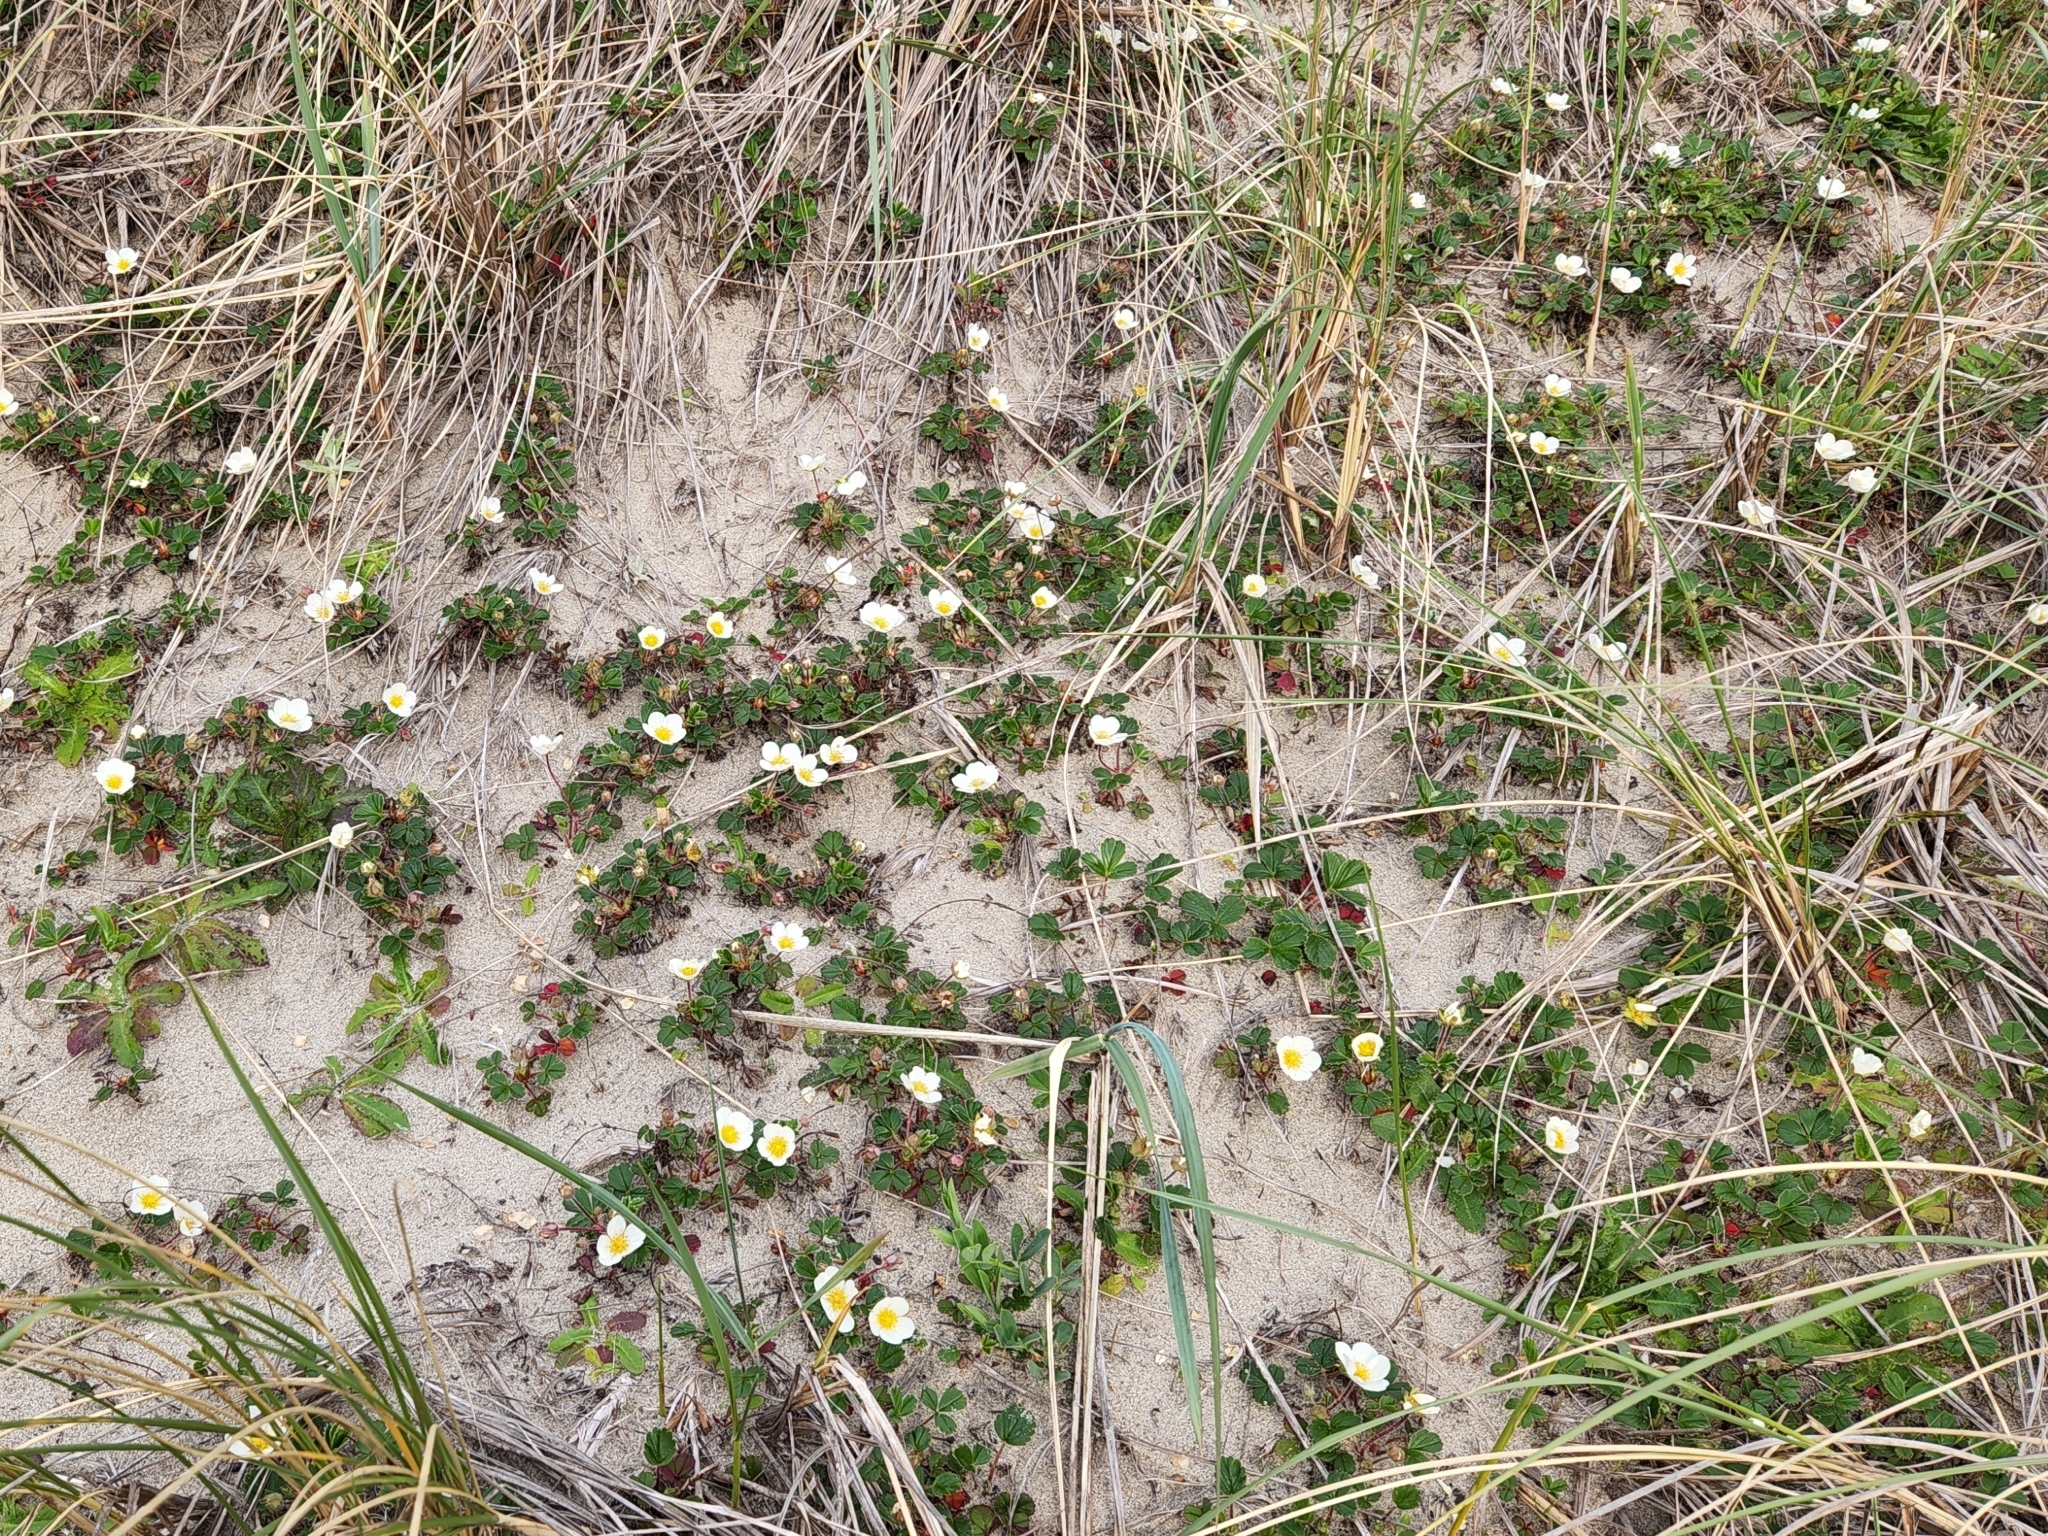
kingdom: Plantae
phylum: Tracheophyta
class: Magnoliopsida
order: Rosales
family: Rosaceae
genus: Fragaria
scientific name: Fragaria chiloensis
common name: Beach strawberry
